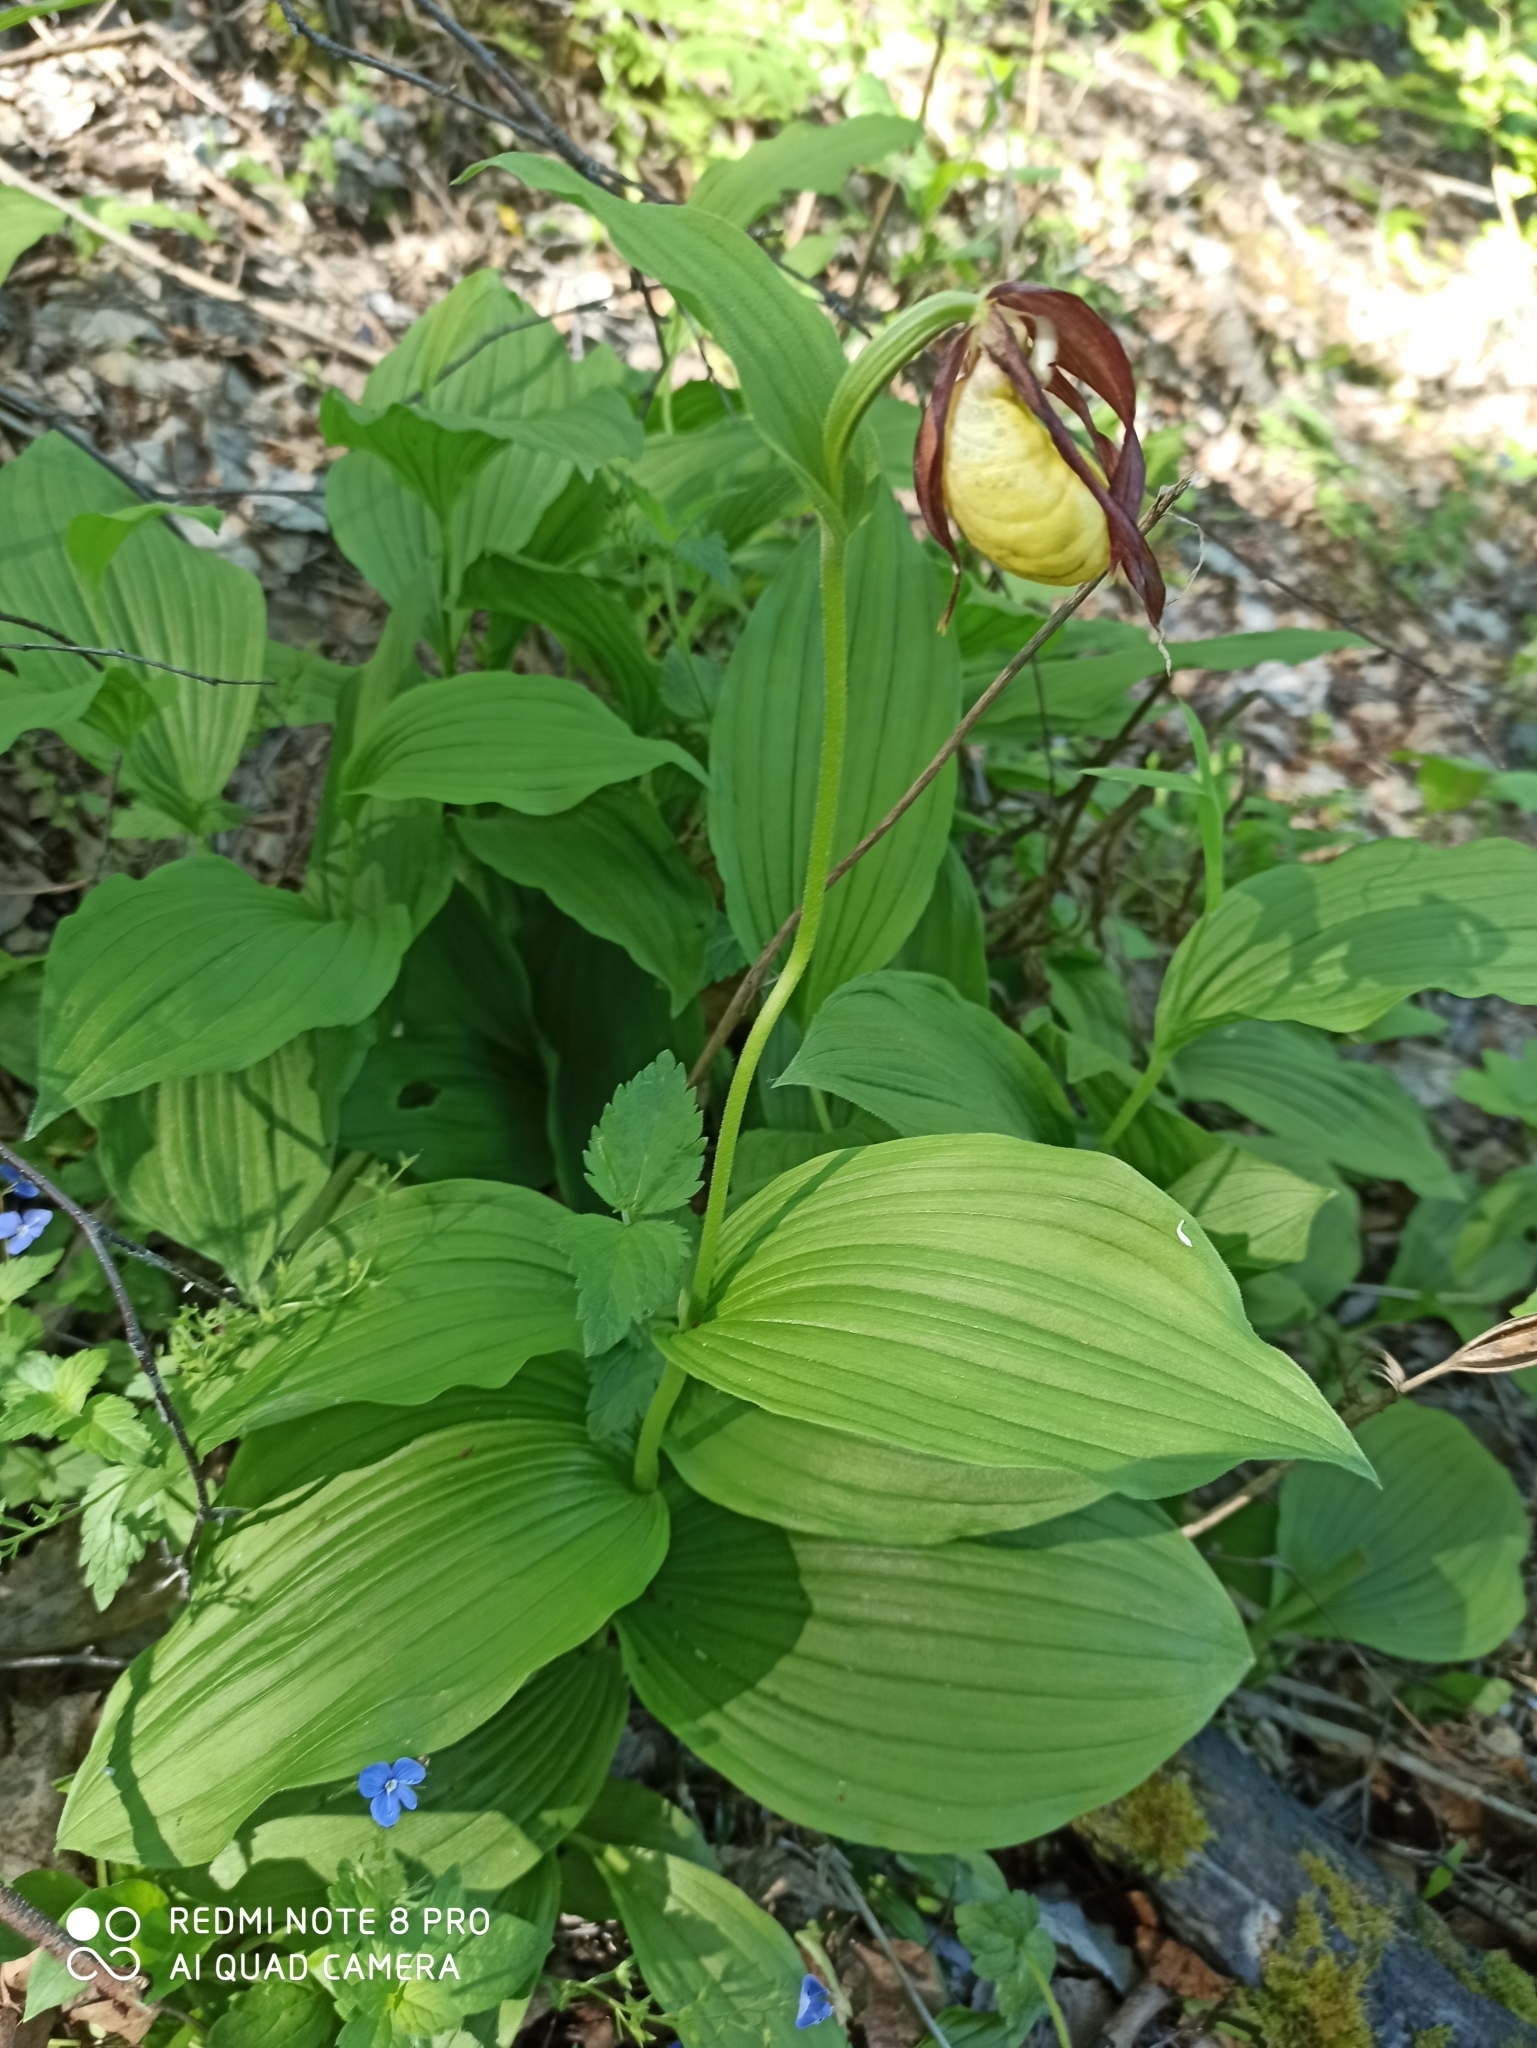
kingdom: Plantae
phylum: Tracheophyta
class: Liliopsida
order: Asparagales
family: Orchidaceae
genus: Cypripedium
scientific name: Cypripedium calceolus
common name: Lady's-slipper
